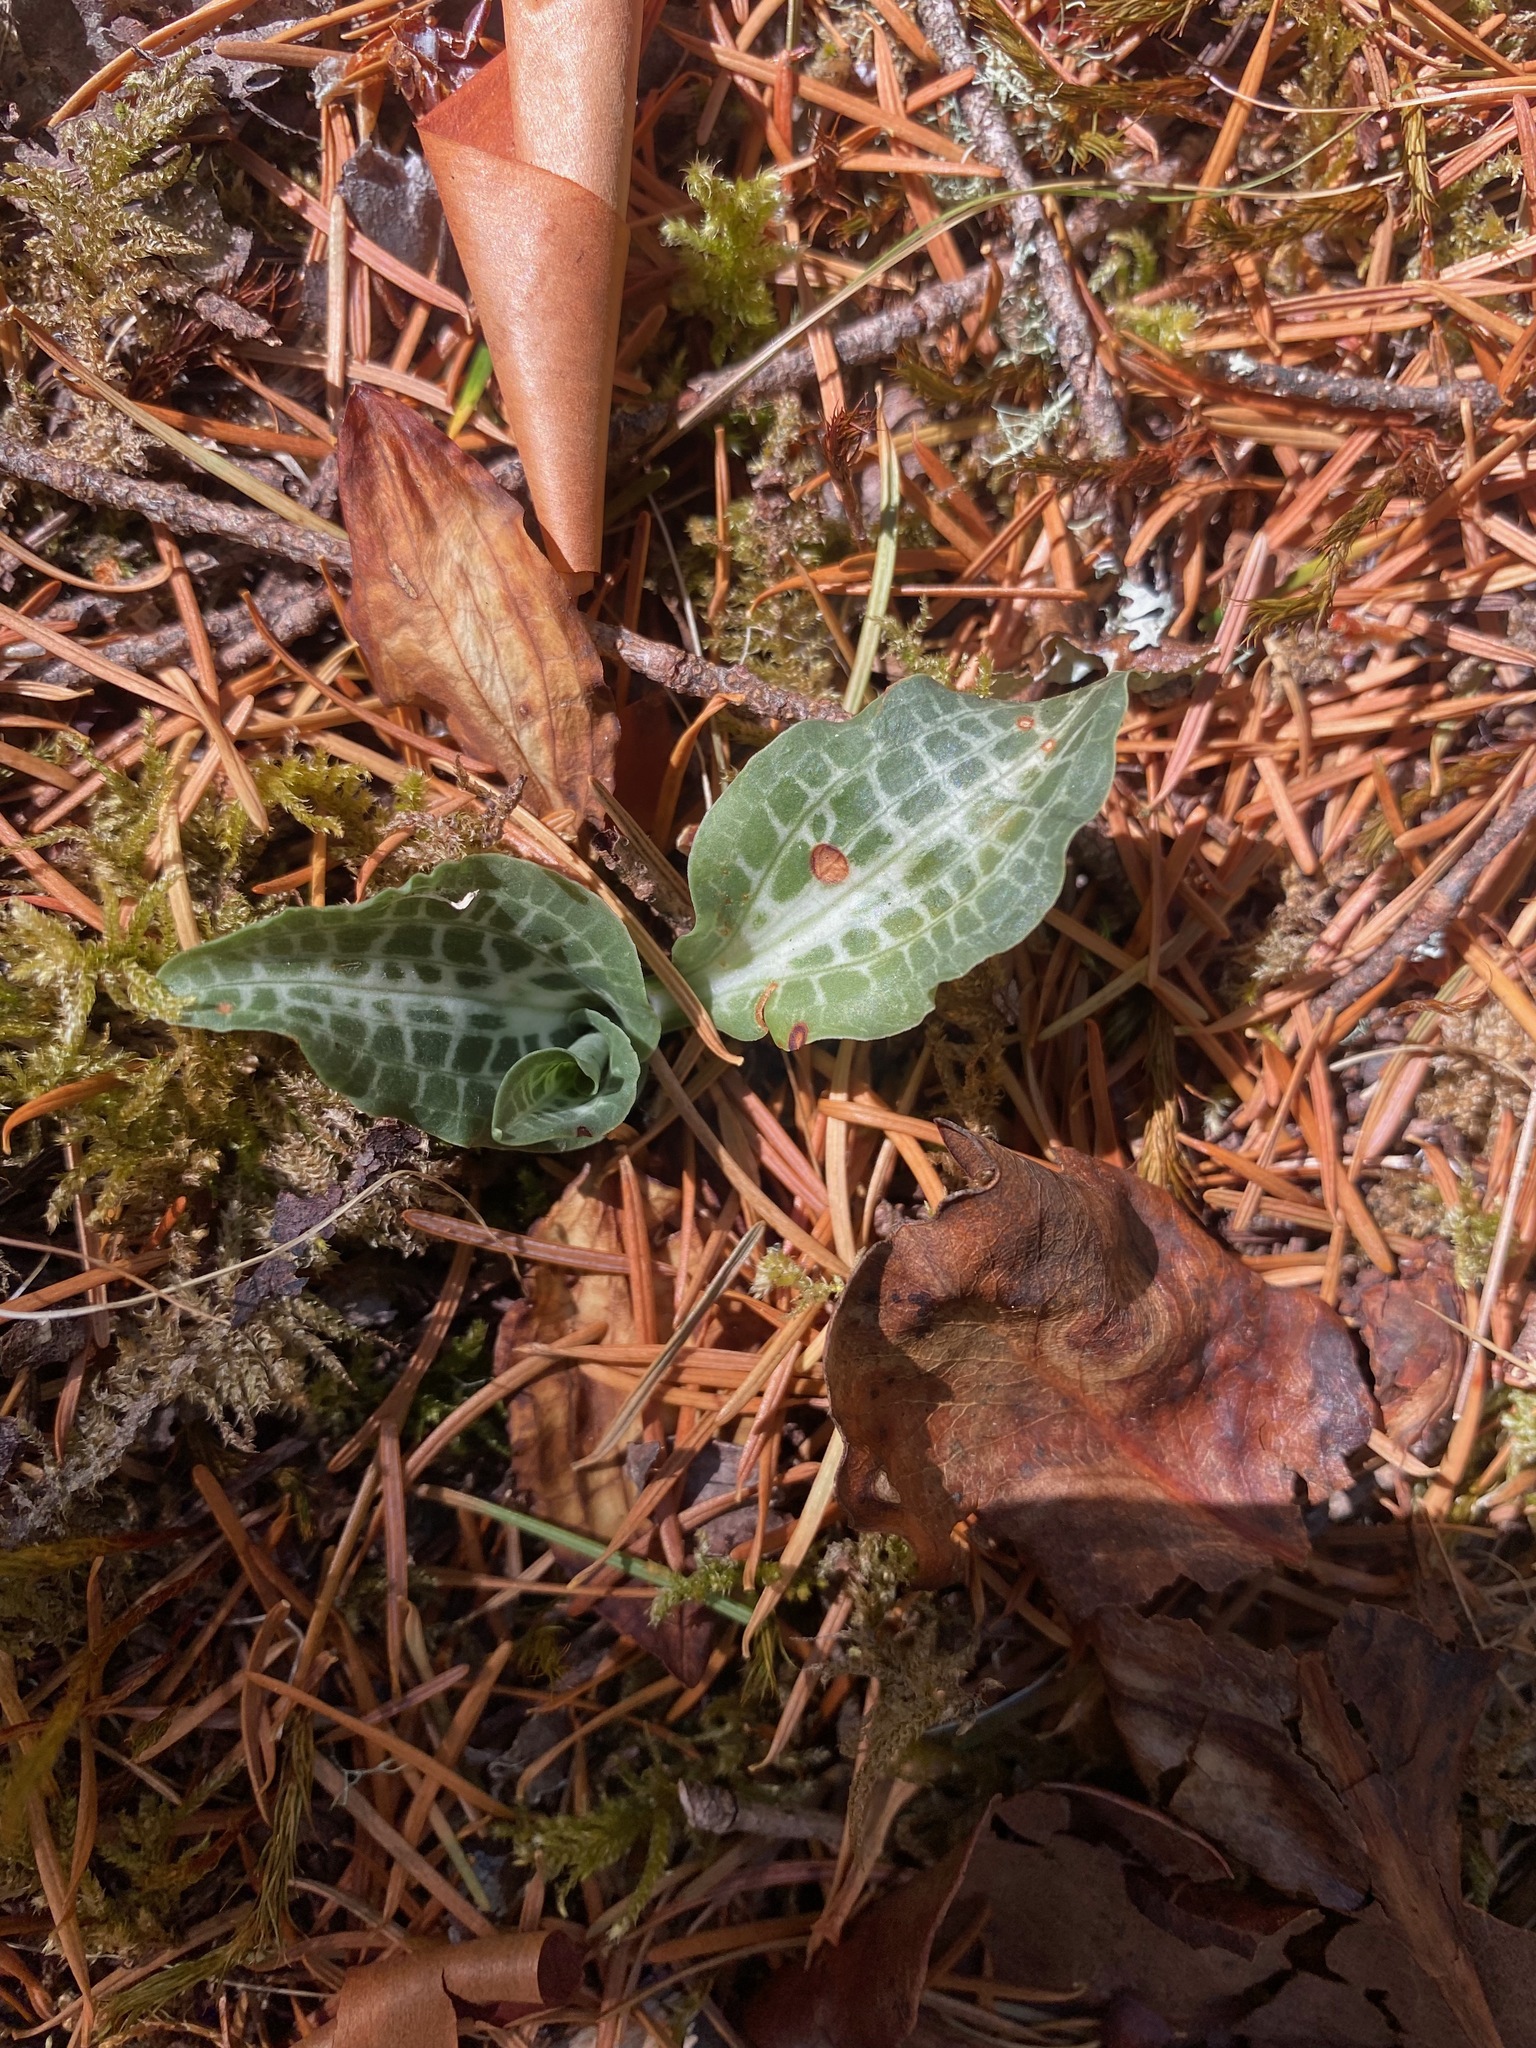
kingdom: Plantae
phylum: Tracheophyta
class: Liliopsida
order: Asparagales
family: Orchidaceae
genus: Goodyera
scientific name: Goodyera oblongifolia
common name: Giant rattlesnake-plantain
